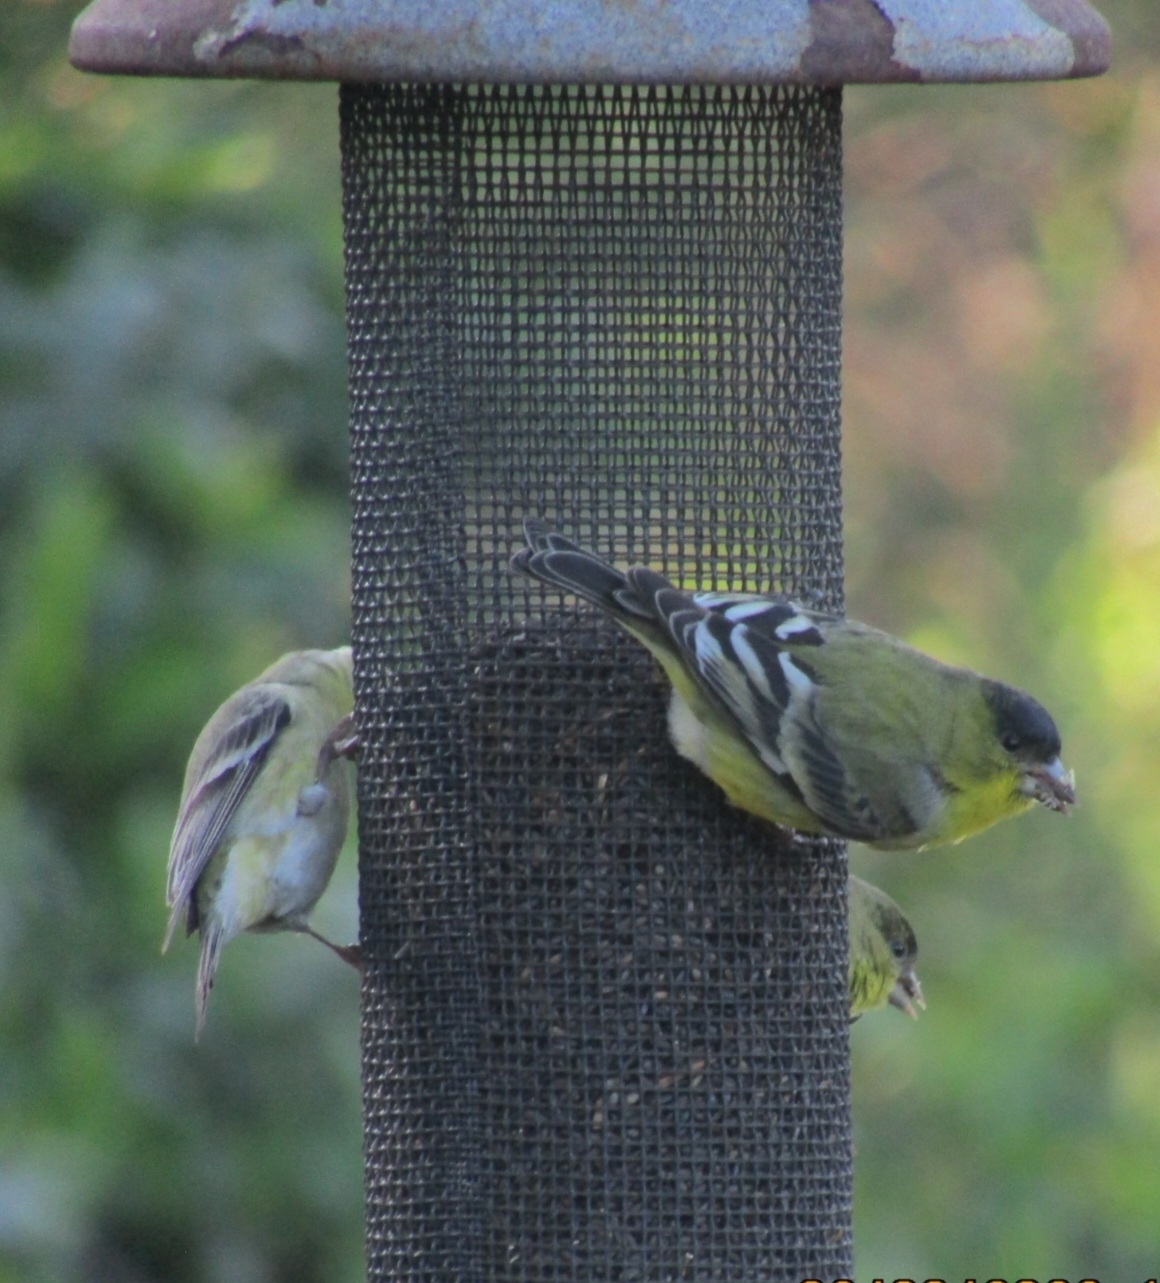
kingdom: Animalia
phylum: Chordata
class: Aves
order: Passeriformes
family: Fringillidae
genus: Spinus
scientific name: Spinus psaltria
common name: Lesser goldfinch
